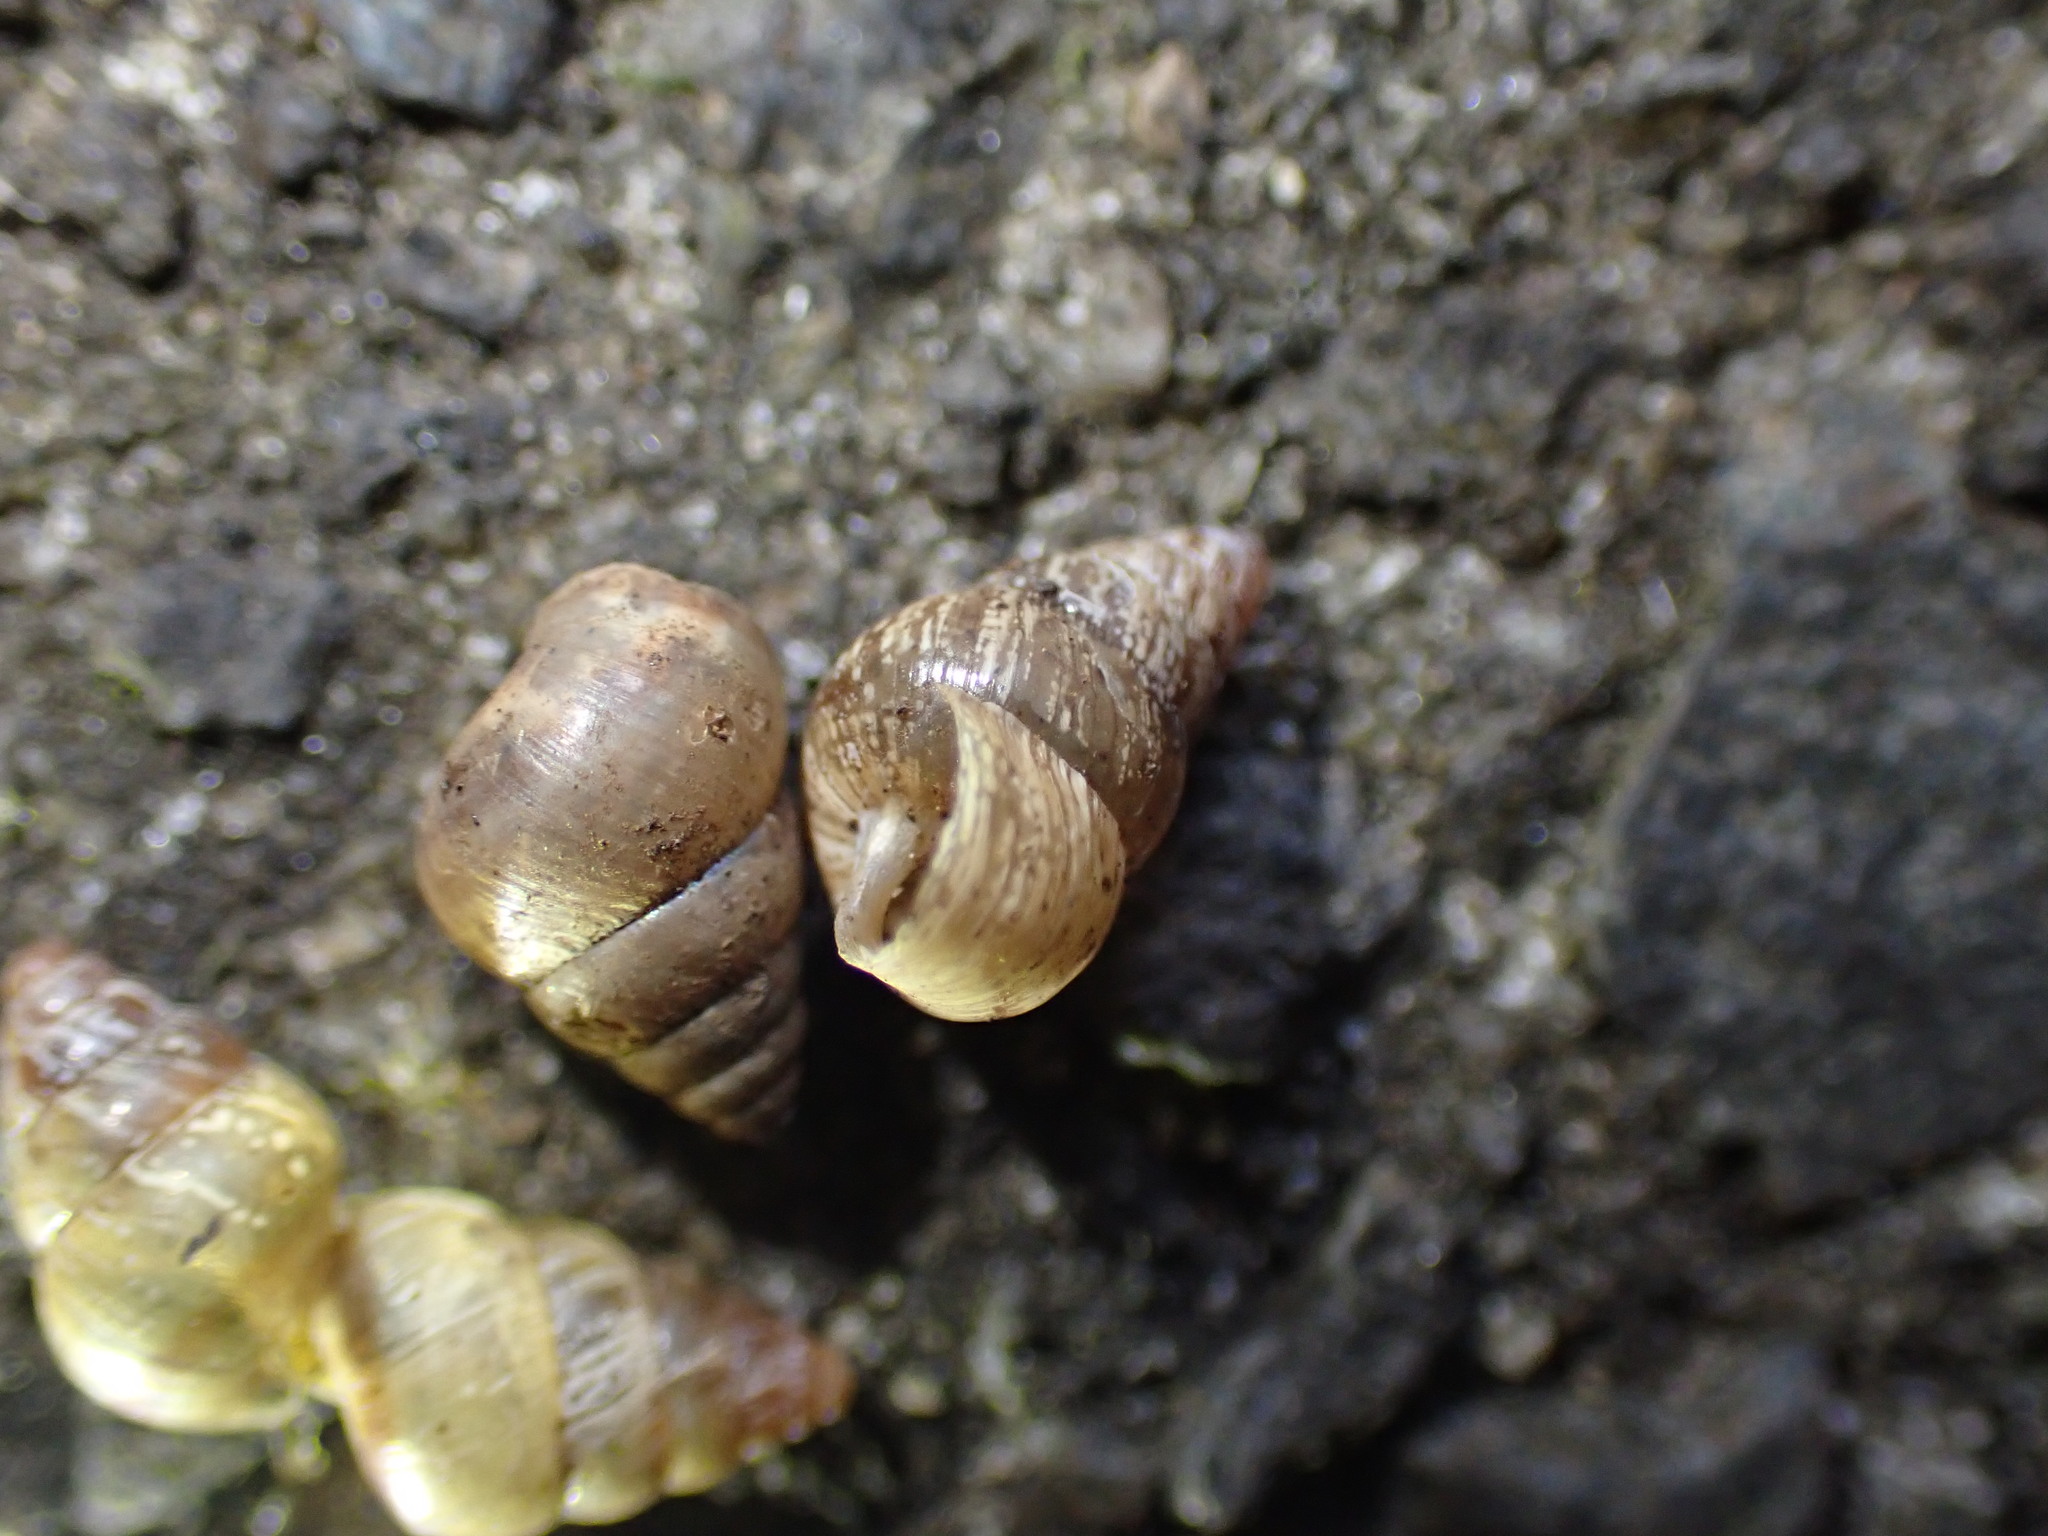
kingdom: Animalia
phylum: Mollusca
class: Gastropoda
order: Stylommatophora
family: Geomitridae
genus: Cochlicella
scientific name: Cochlicella barbara
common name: Potbellied helicellid
